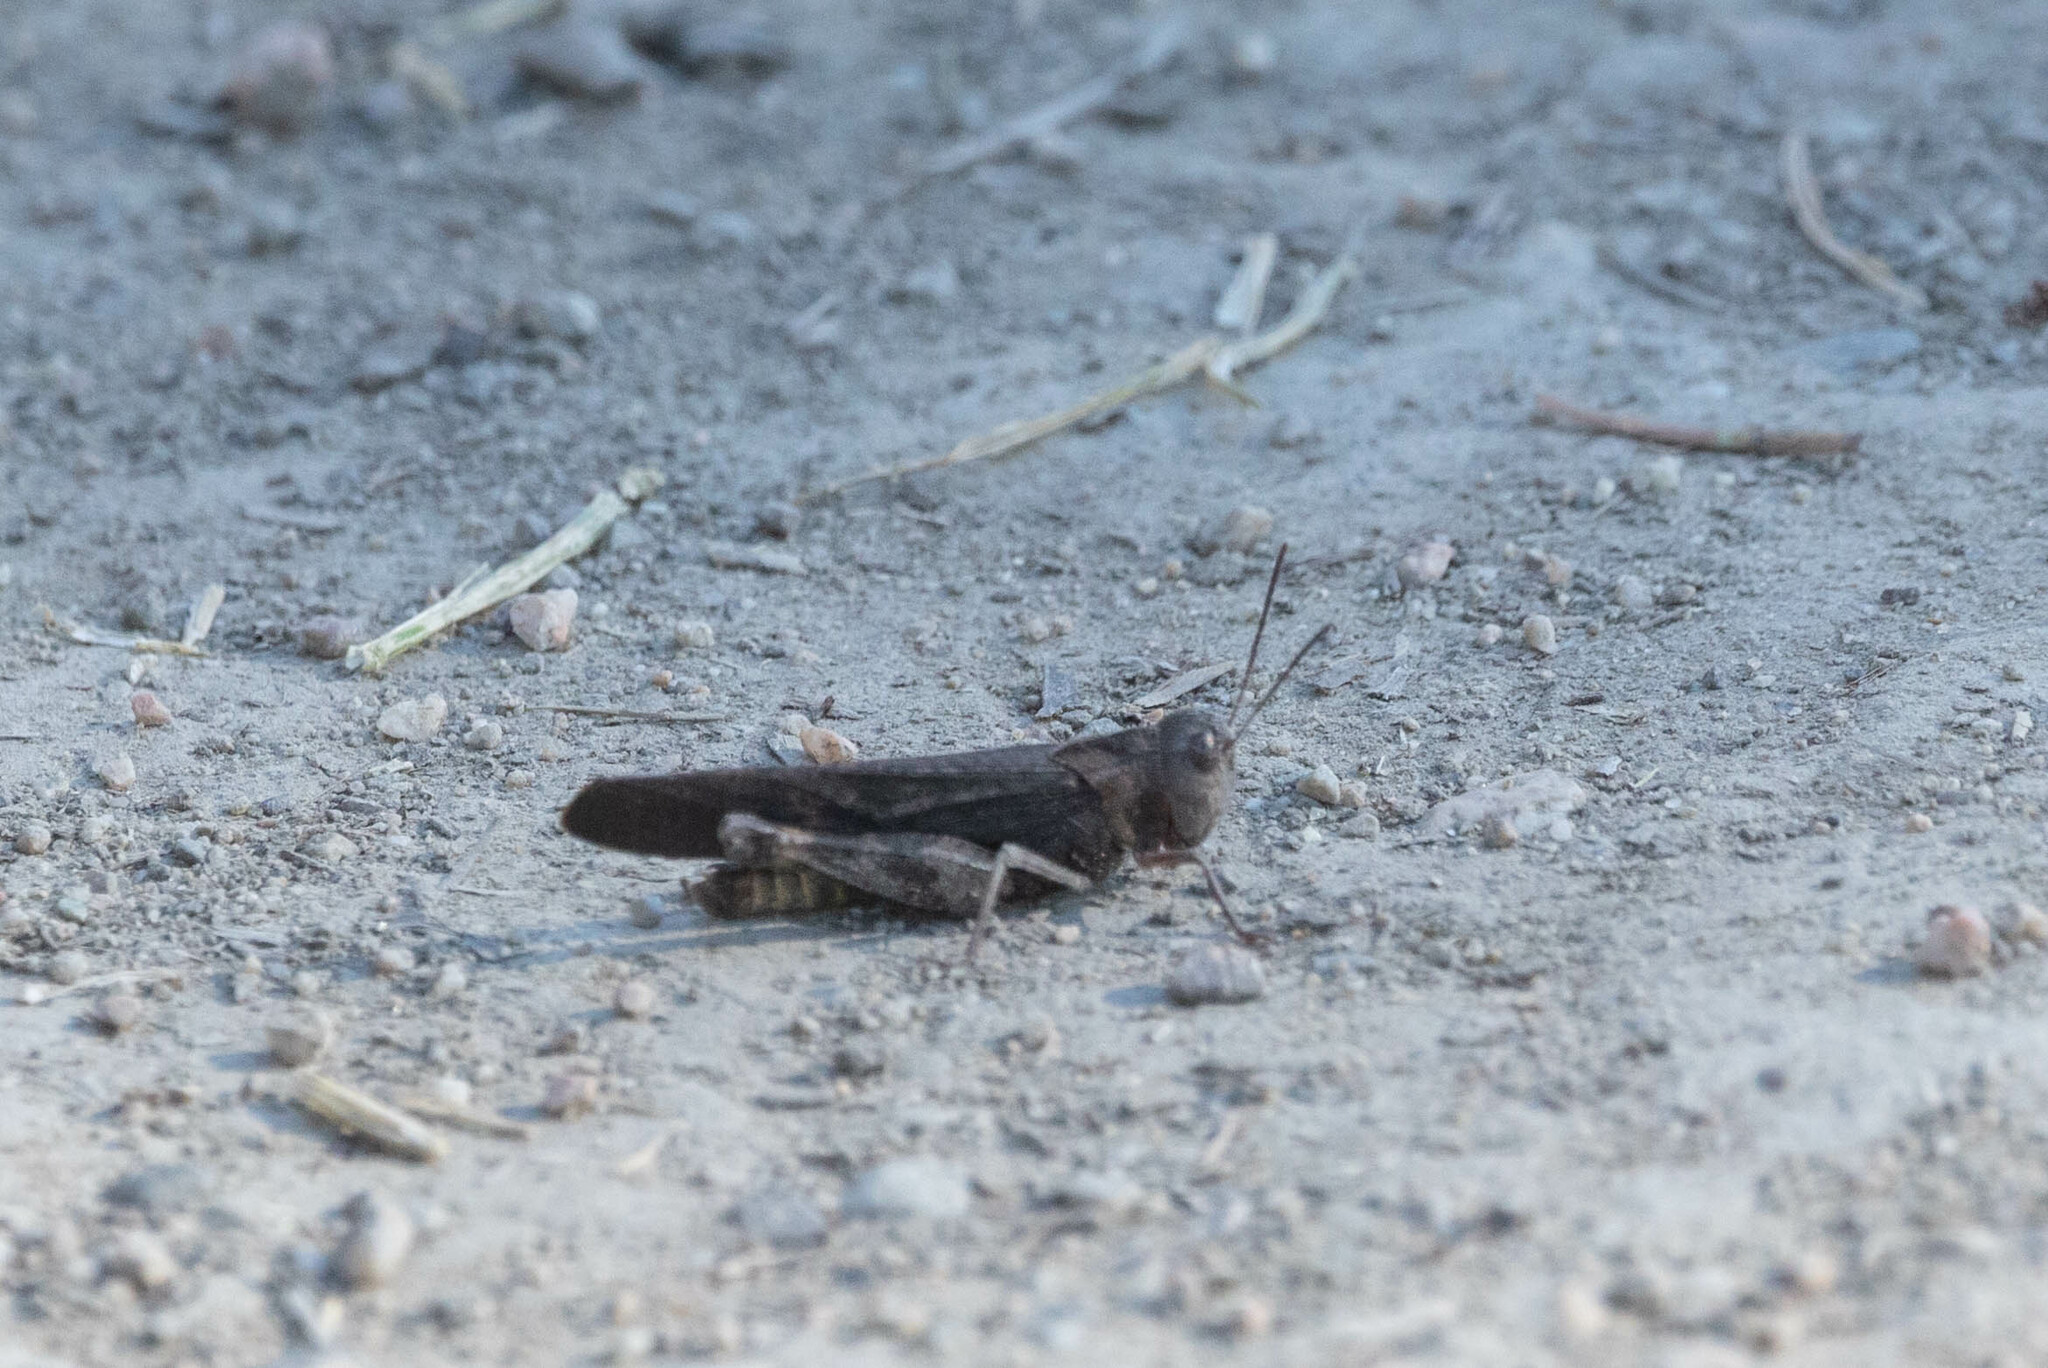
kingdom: Animalia
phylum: Arthropoda
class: Insecta
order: Orthoptera
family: Acrididae
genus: Arphia
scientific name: Arphia pseudo-nietana
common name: Red-winged grasshopper
